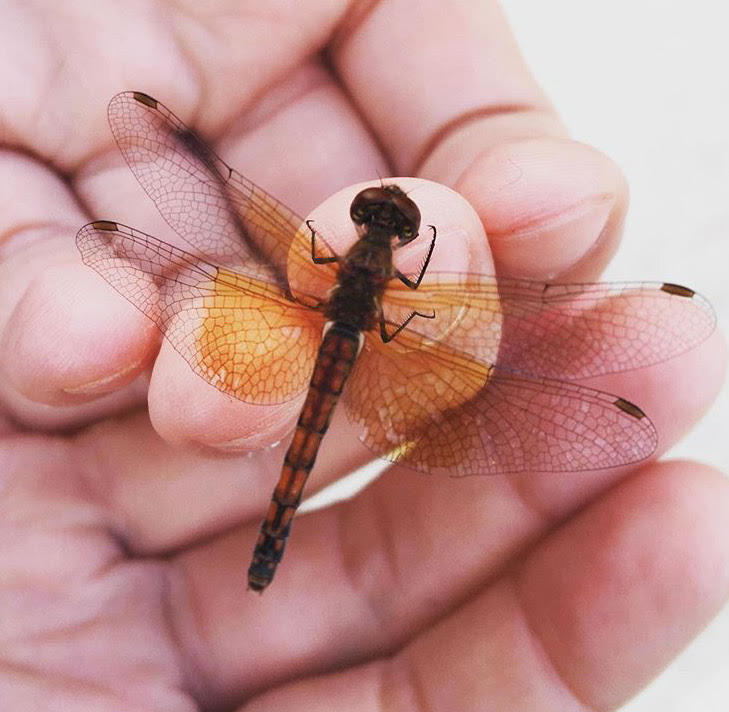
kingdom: Animalia
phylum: Arthropoda
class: Insecta
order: Odonata
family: Libellulidae
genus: Sympetrum
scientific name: Sympetrum semicinctum
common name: Band-winged meadowhawk
